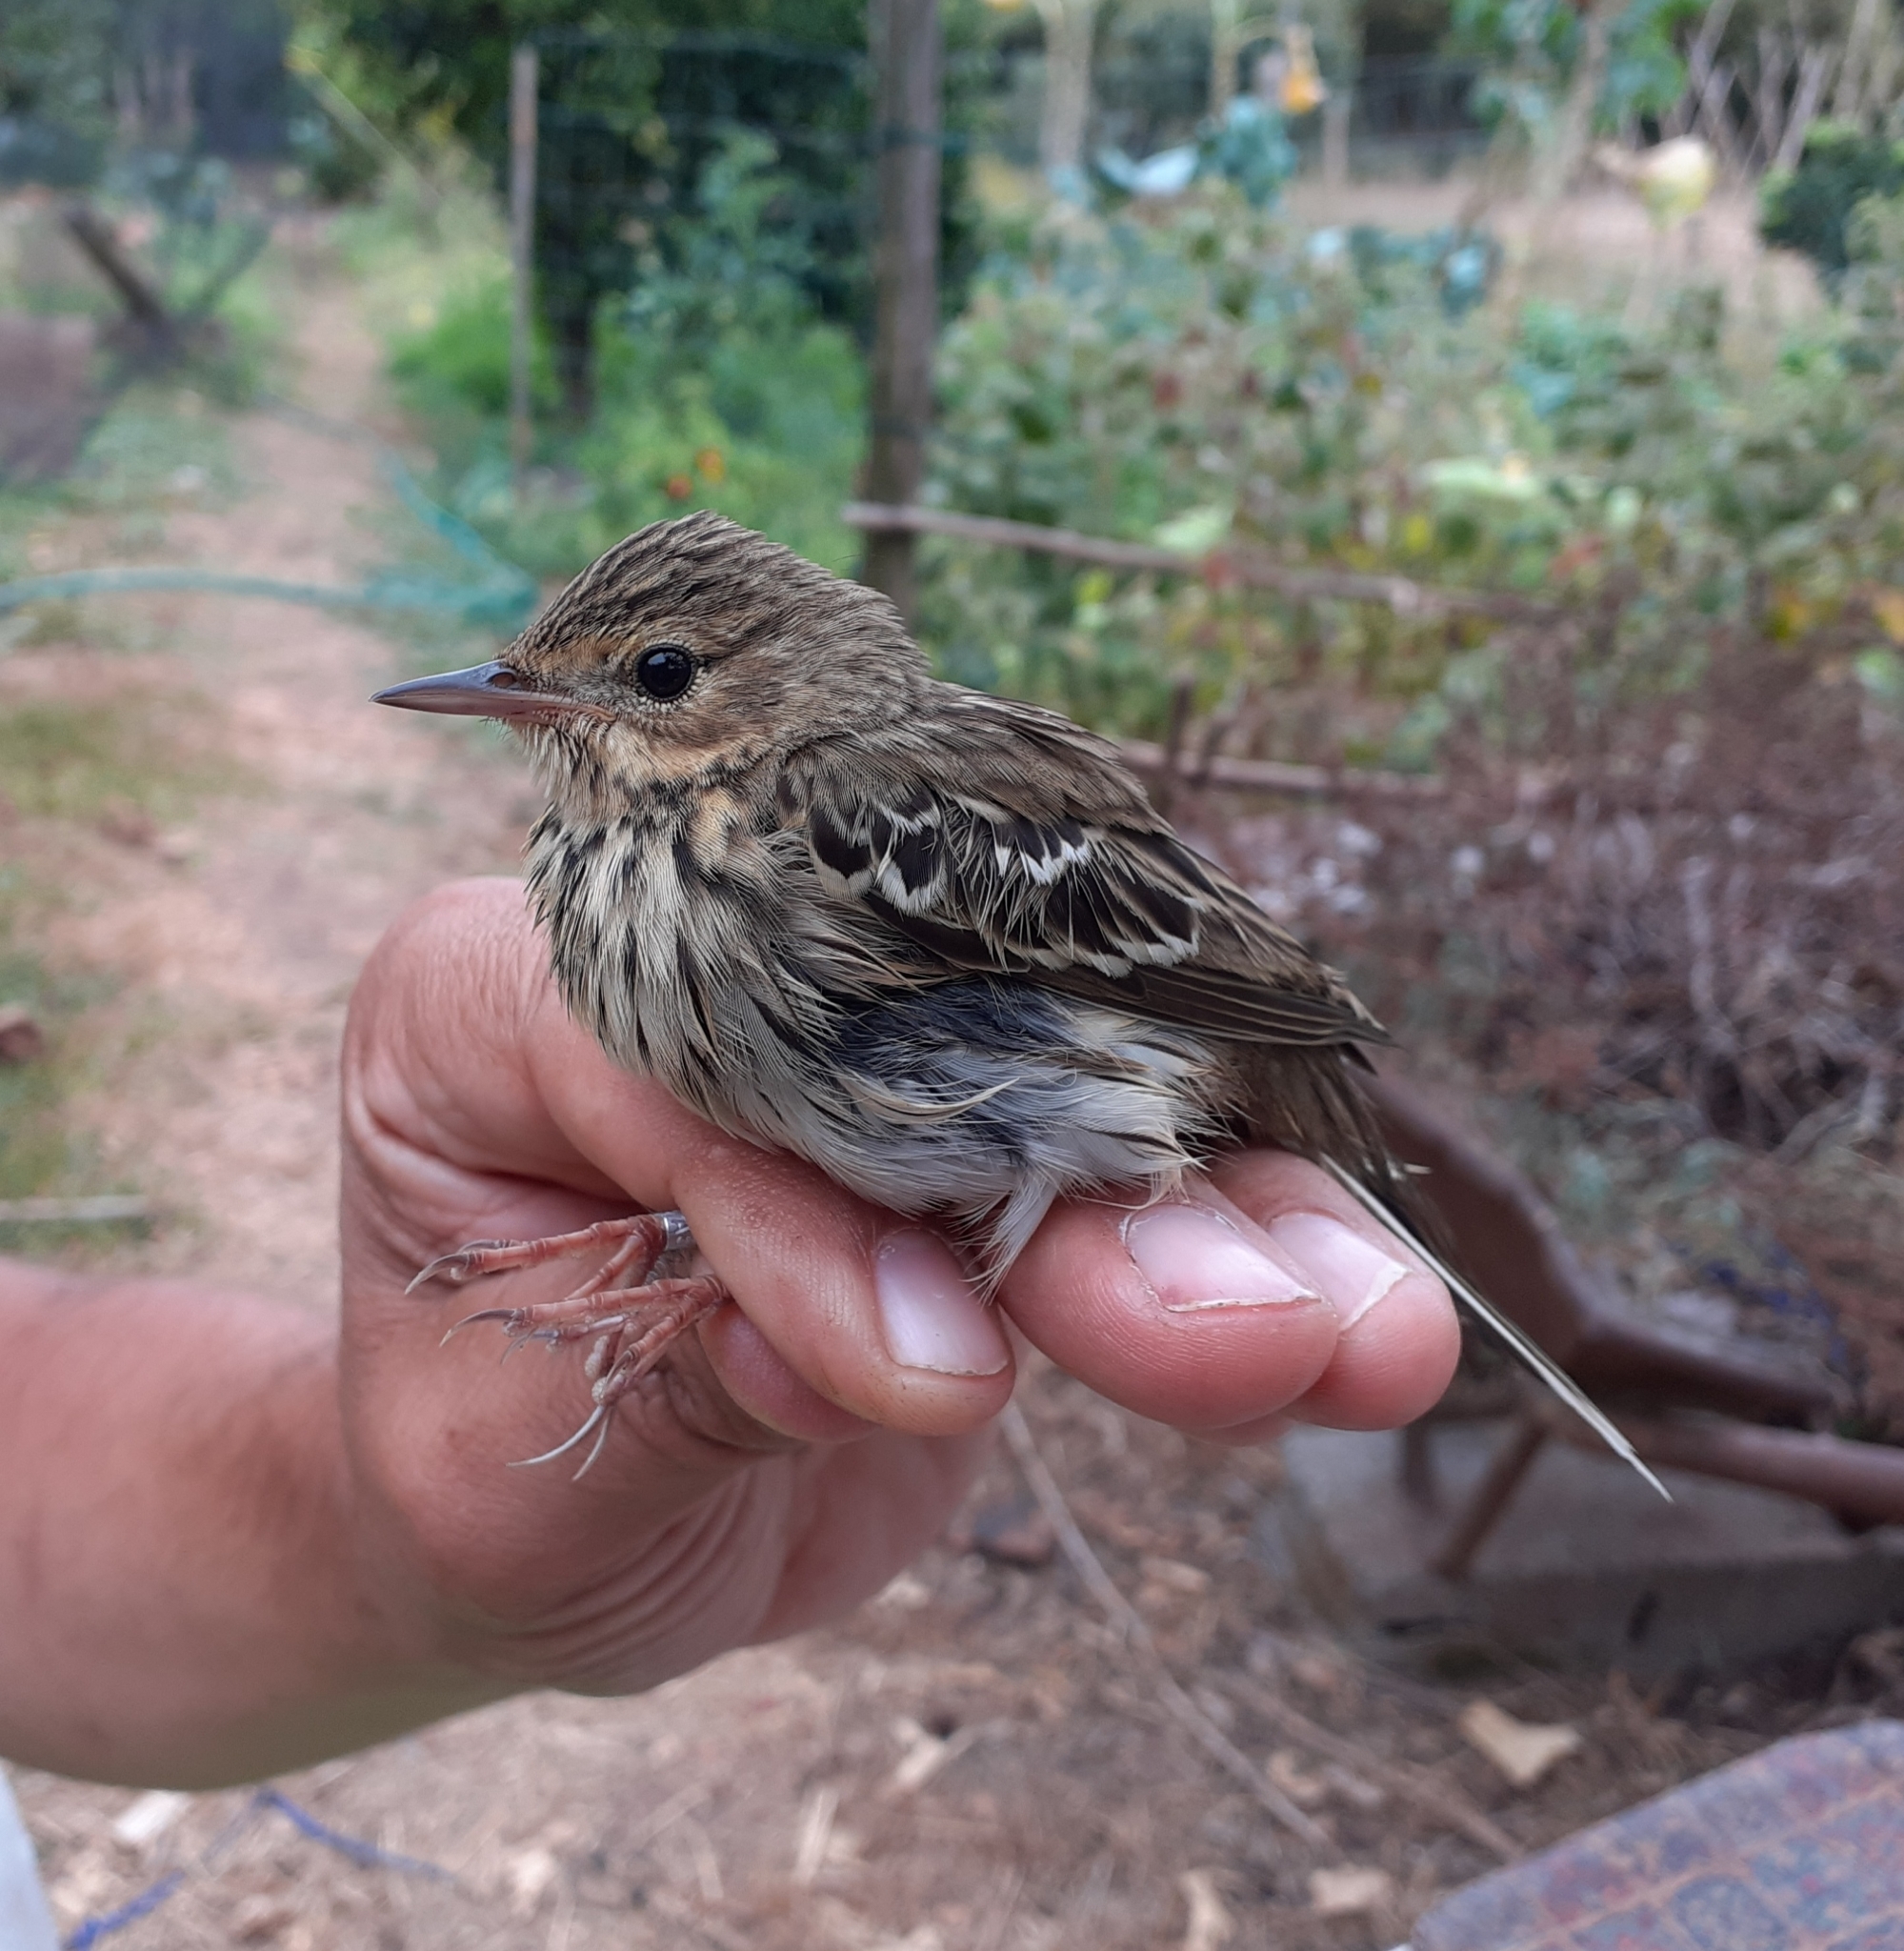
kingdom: Animalia
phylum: Chordata
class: Aves
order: Passeriformes
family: Motacillidae
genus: Anthus
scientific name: Anthus trivialis
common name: Tree pipit
